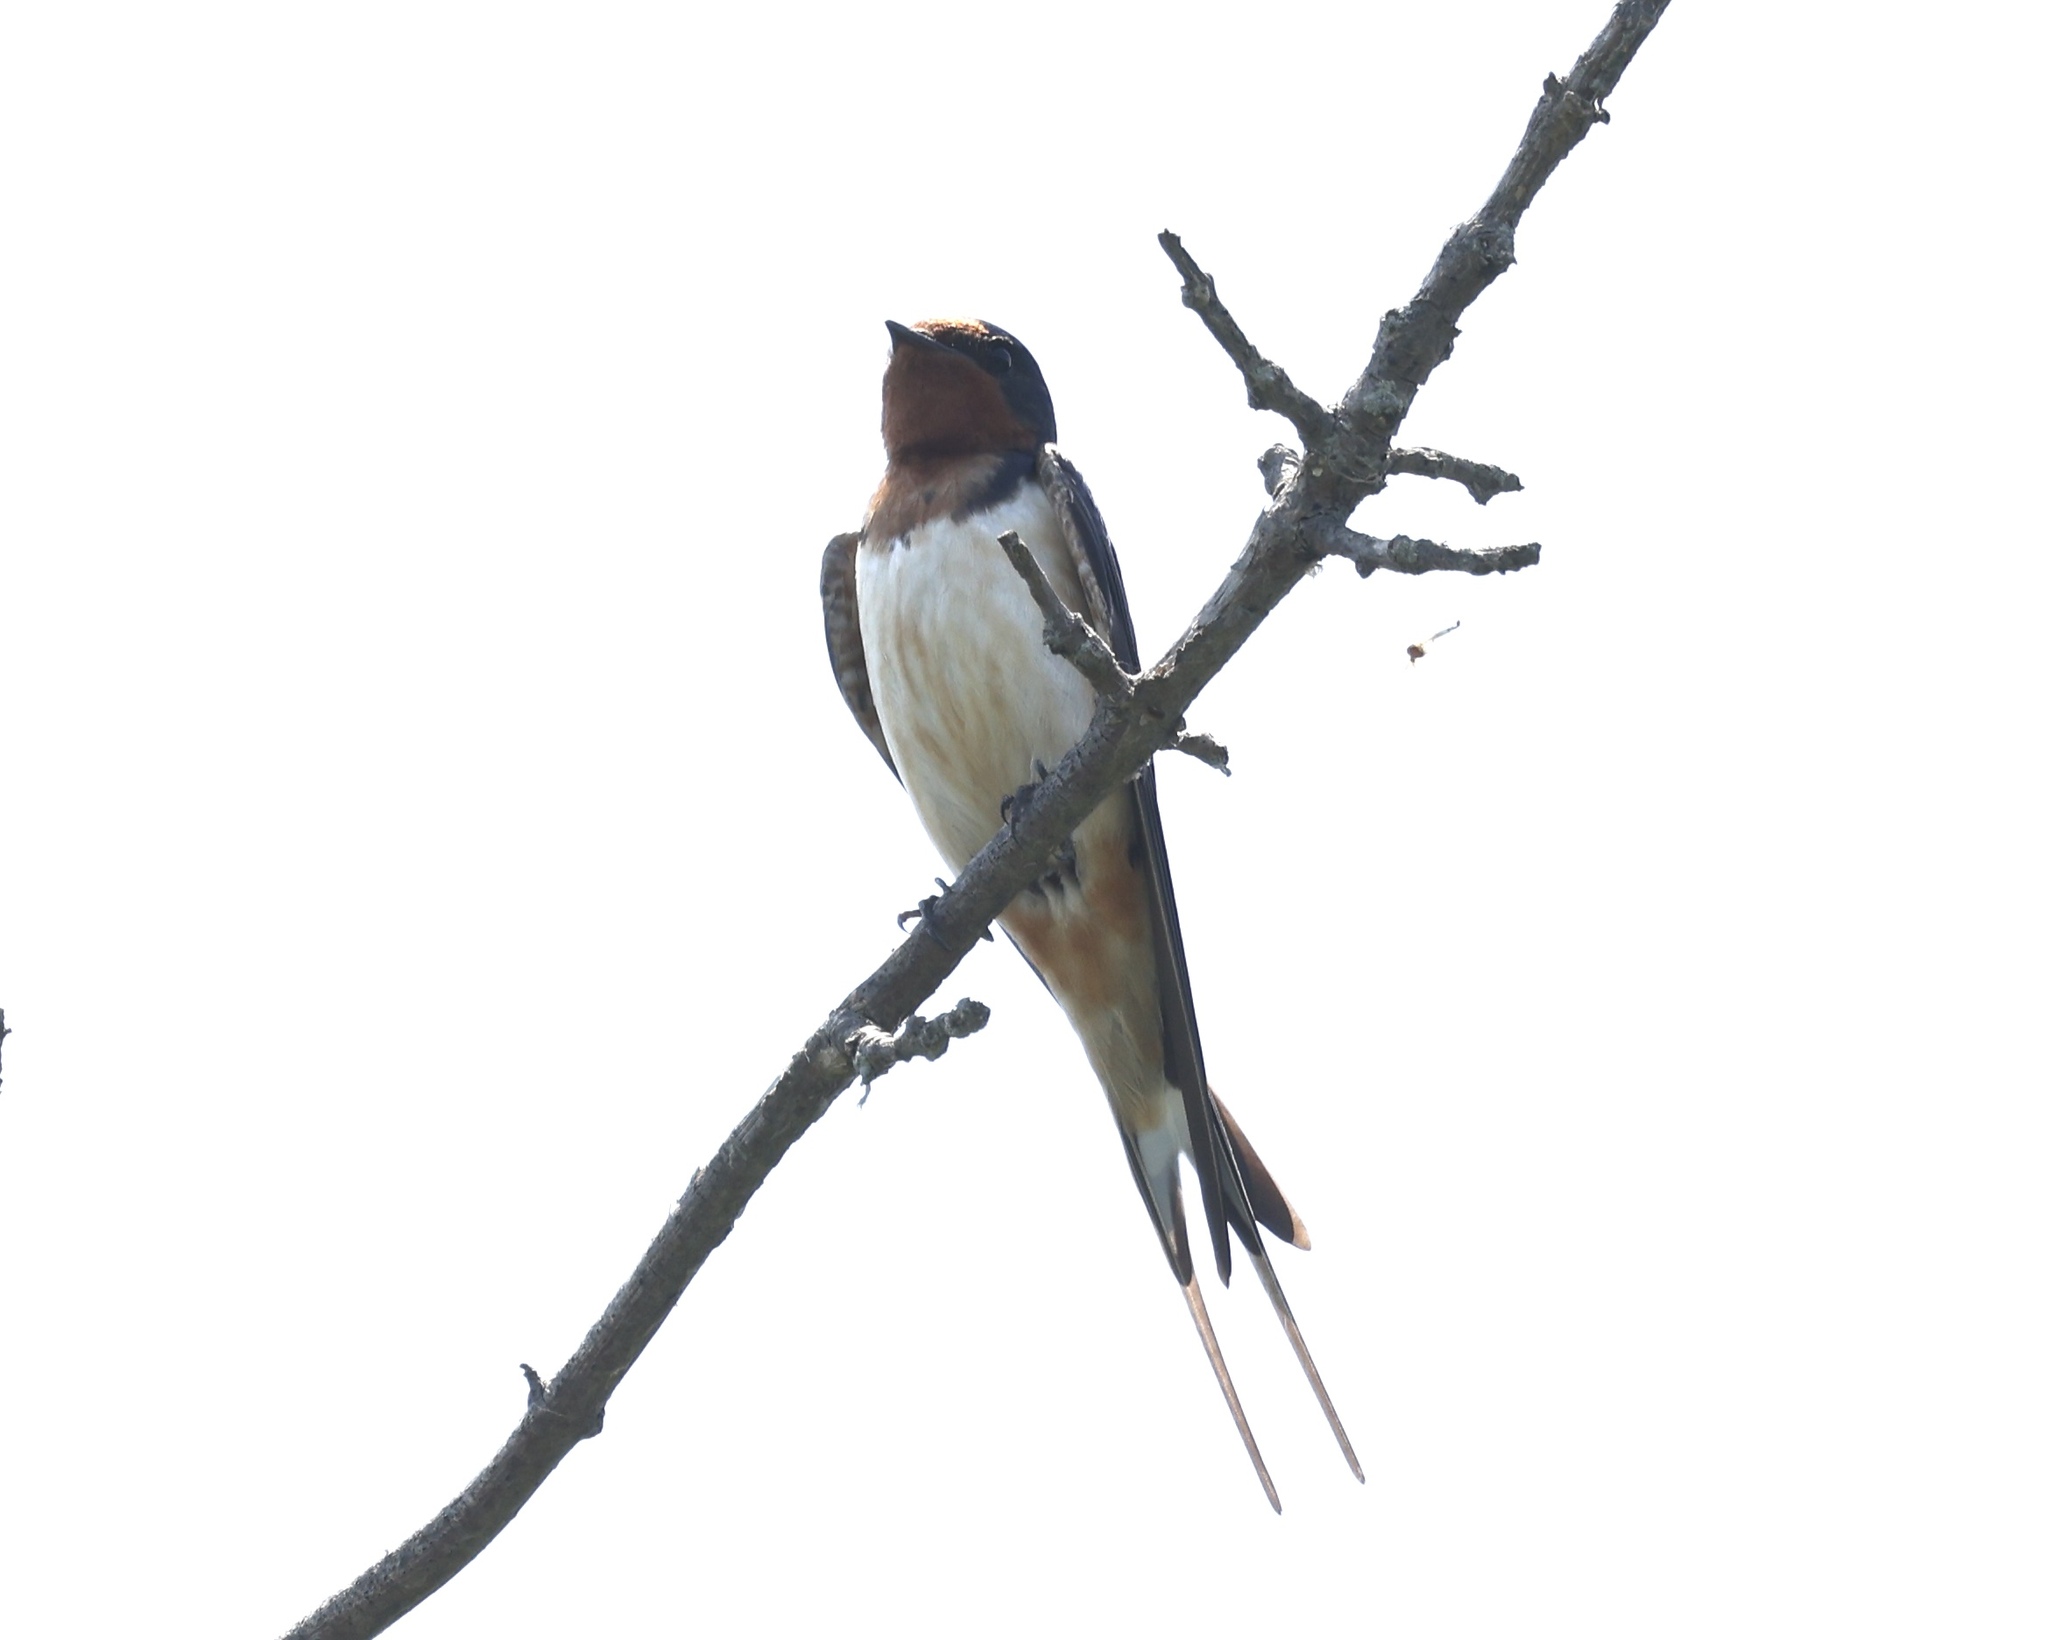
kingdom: Animalia
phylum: Chordata
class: Aves
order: Passeriformes
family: Hirundinidae
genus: Hirundo
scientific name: Hirundo rustica
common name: Barn swallow
